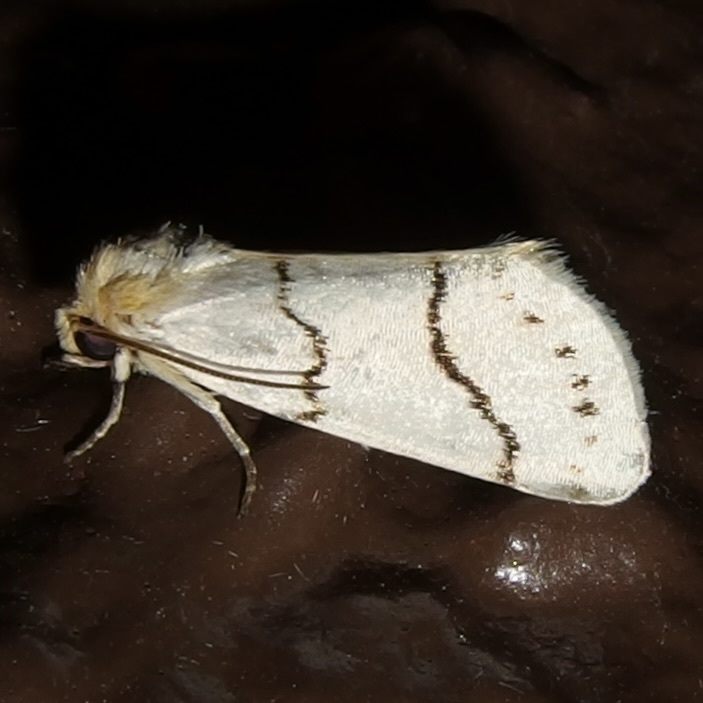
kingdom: Animalia
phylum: Arthropoda
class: Insecta
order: Lepidoptera
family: Noctuidae
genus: Lineostriastiria
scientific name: Lineostriastiria sexseriata
